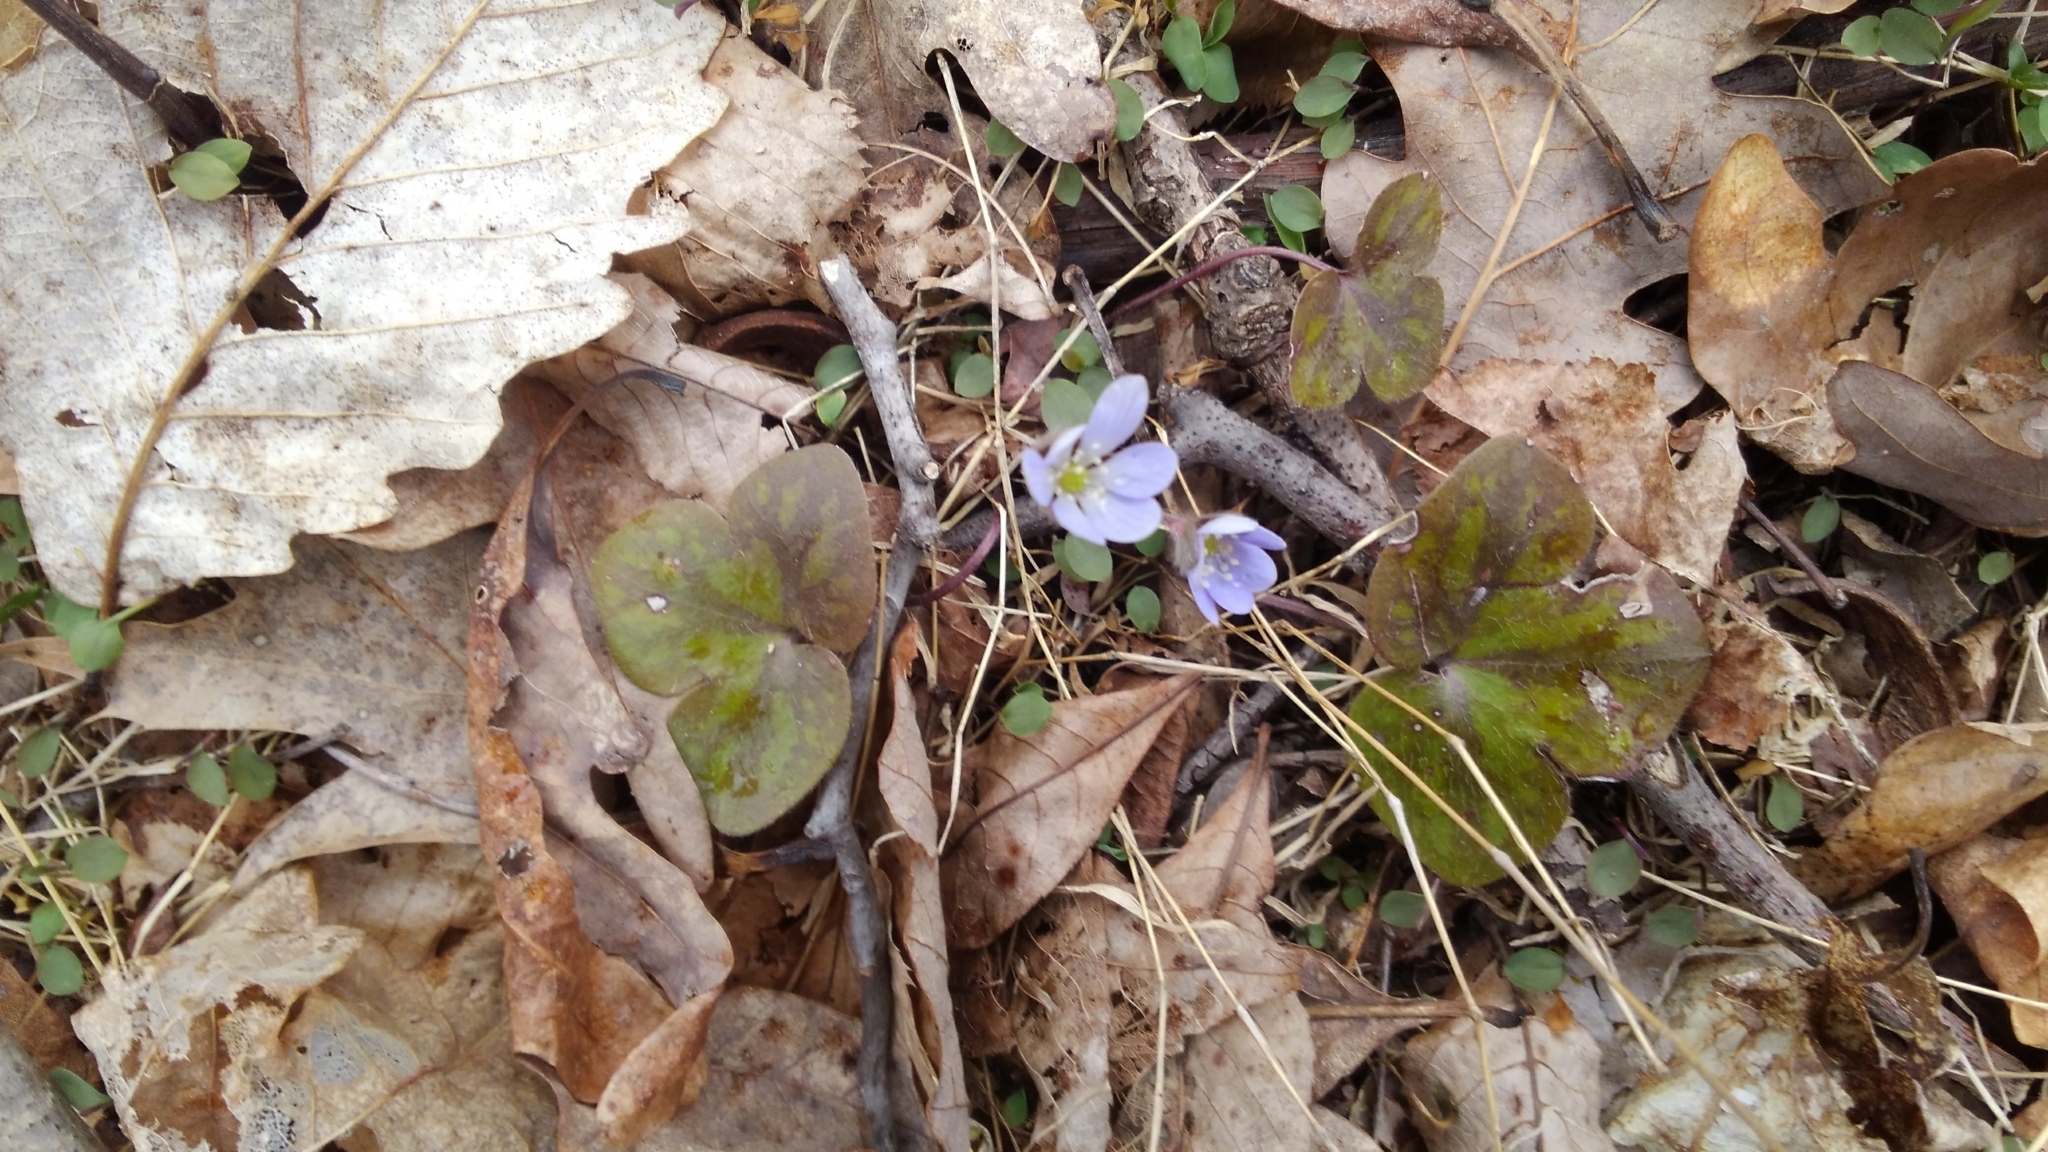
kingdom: Plantae
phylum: Tracheophyta
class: Magnoliopsida
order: Ranunculales
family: Ranunculaceae
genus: Hepatica
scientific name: Hepatica americana
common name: American hepatica
